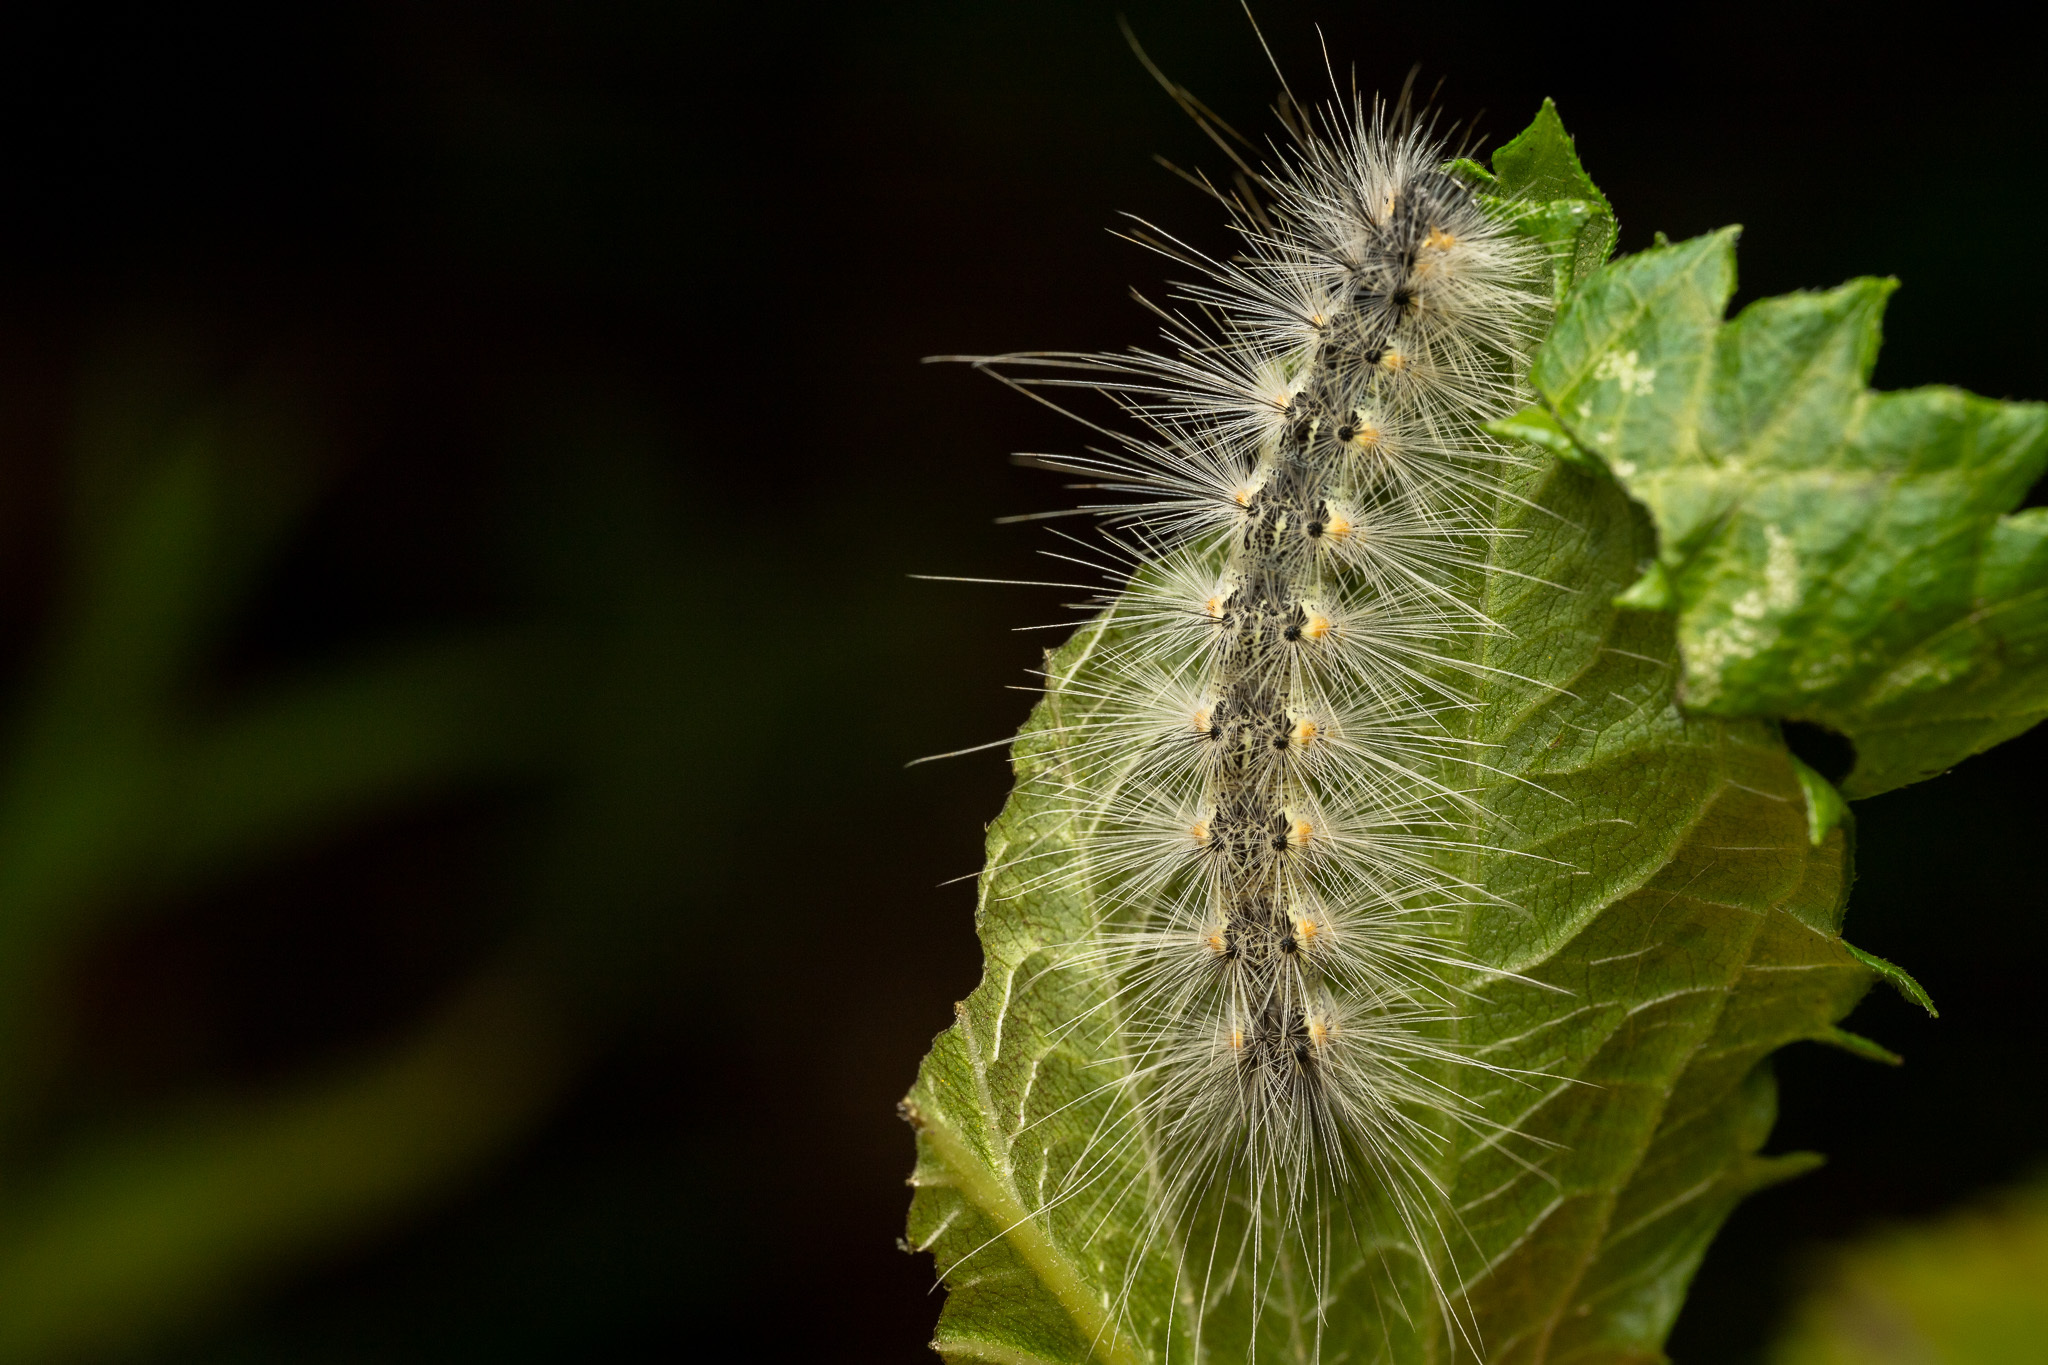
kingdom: Animalia
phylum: Arthropoda
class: Insecta
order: Lepidoptera
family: Erebidae
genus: Hyphantria
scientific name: Hyphantria cunea
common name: American white moth
